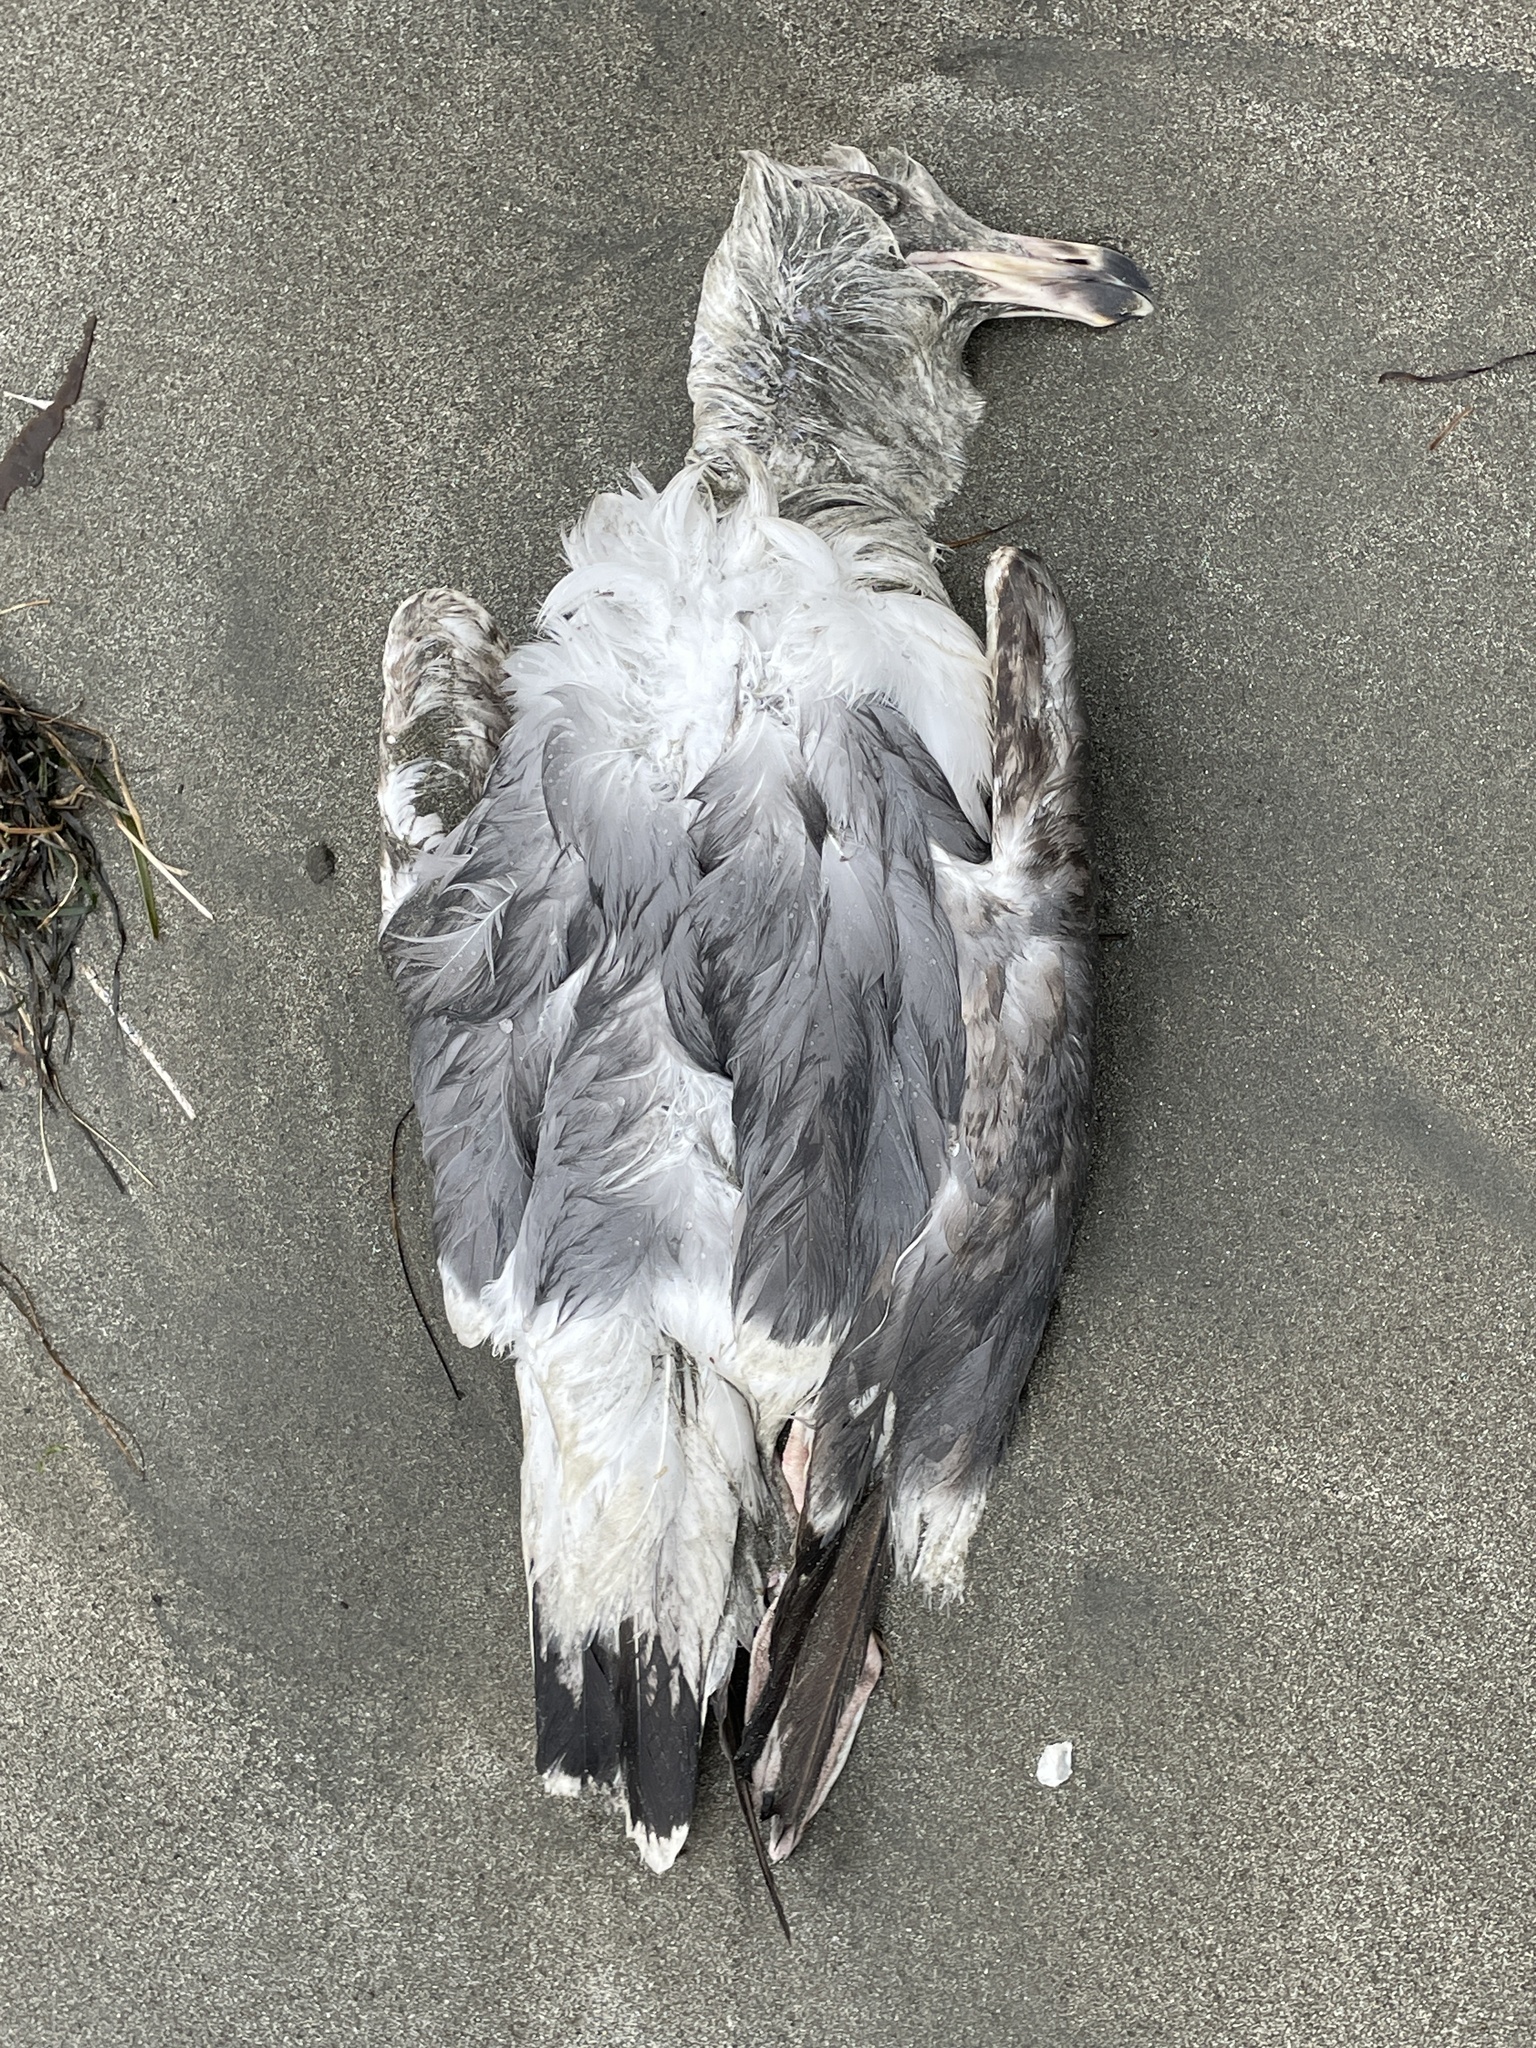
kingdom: Animalia
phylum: Chordata
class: Aves
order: Charadriiformes
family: Laridae
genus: Larus
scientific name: Larus occidentalis
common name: Western gull
